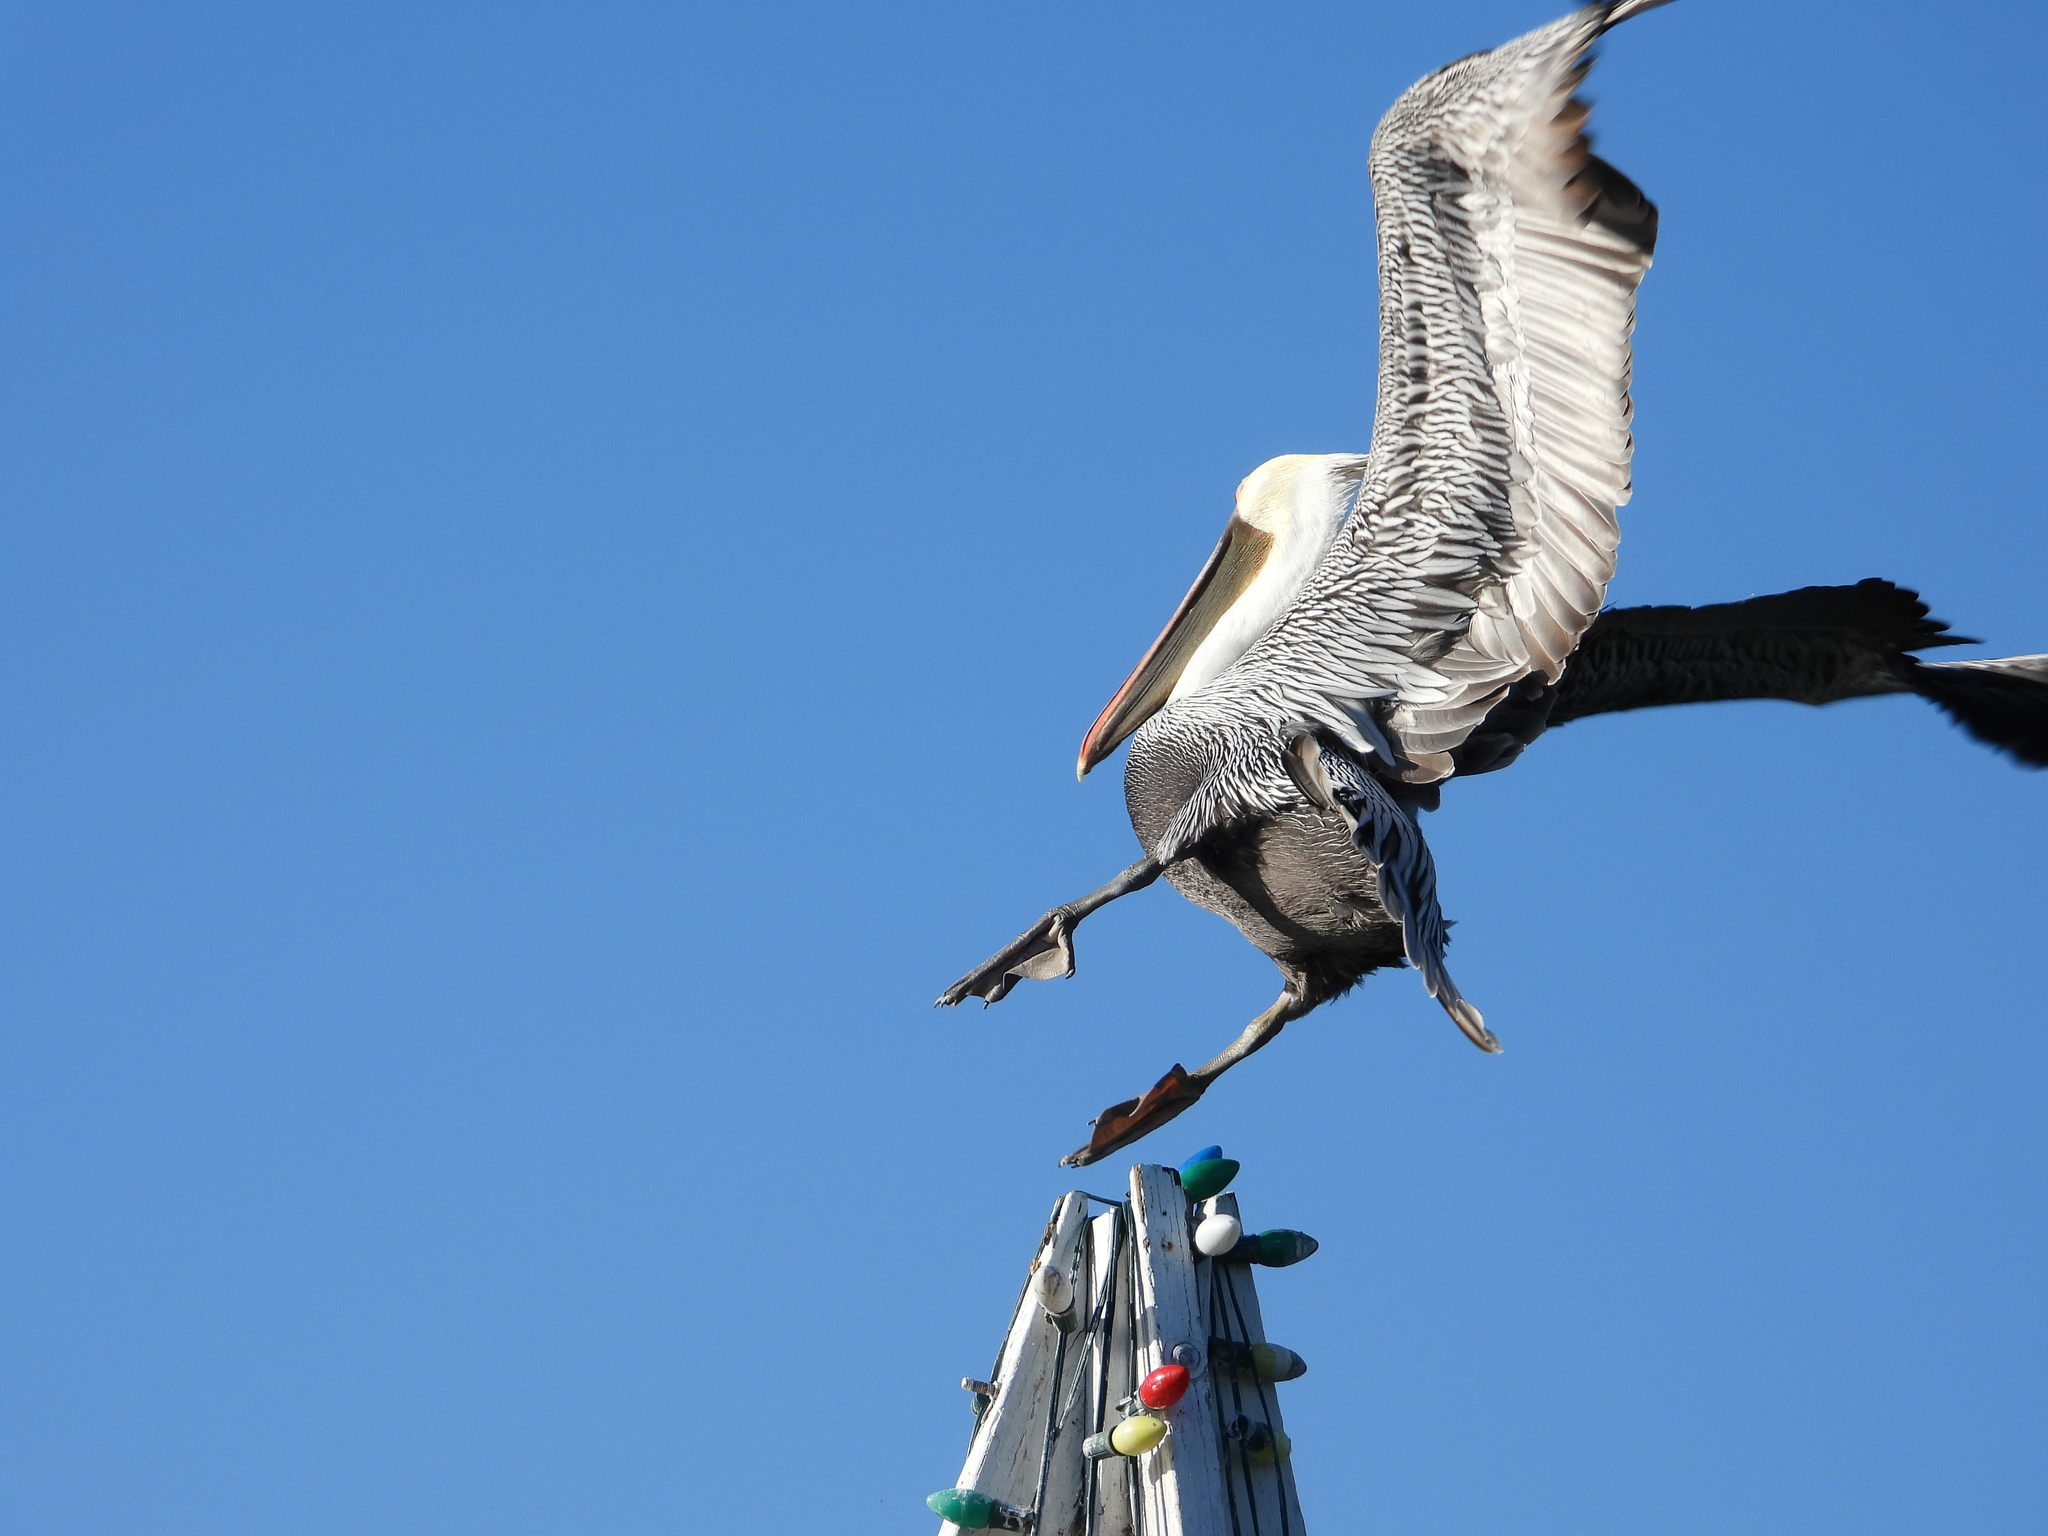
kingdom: Animalia
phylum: Chordata
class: Aves
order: Pelecaniformes
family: Pelecanidae
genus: Pelecanus
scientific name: Pelecanus occidentalis
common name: Brown pelican
